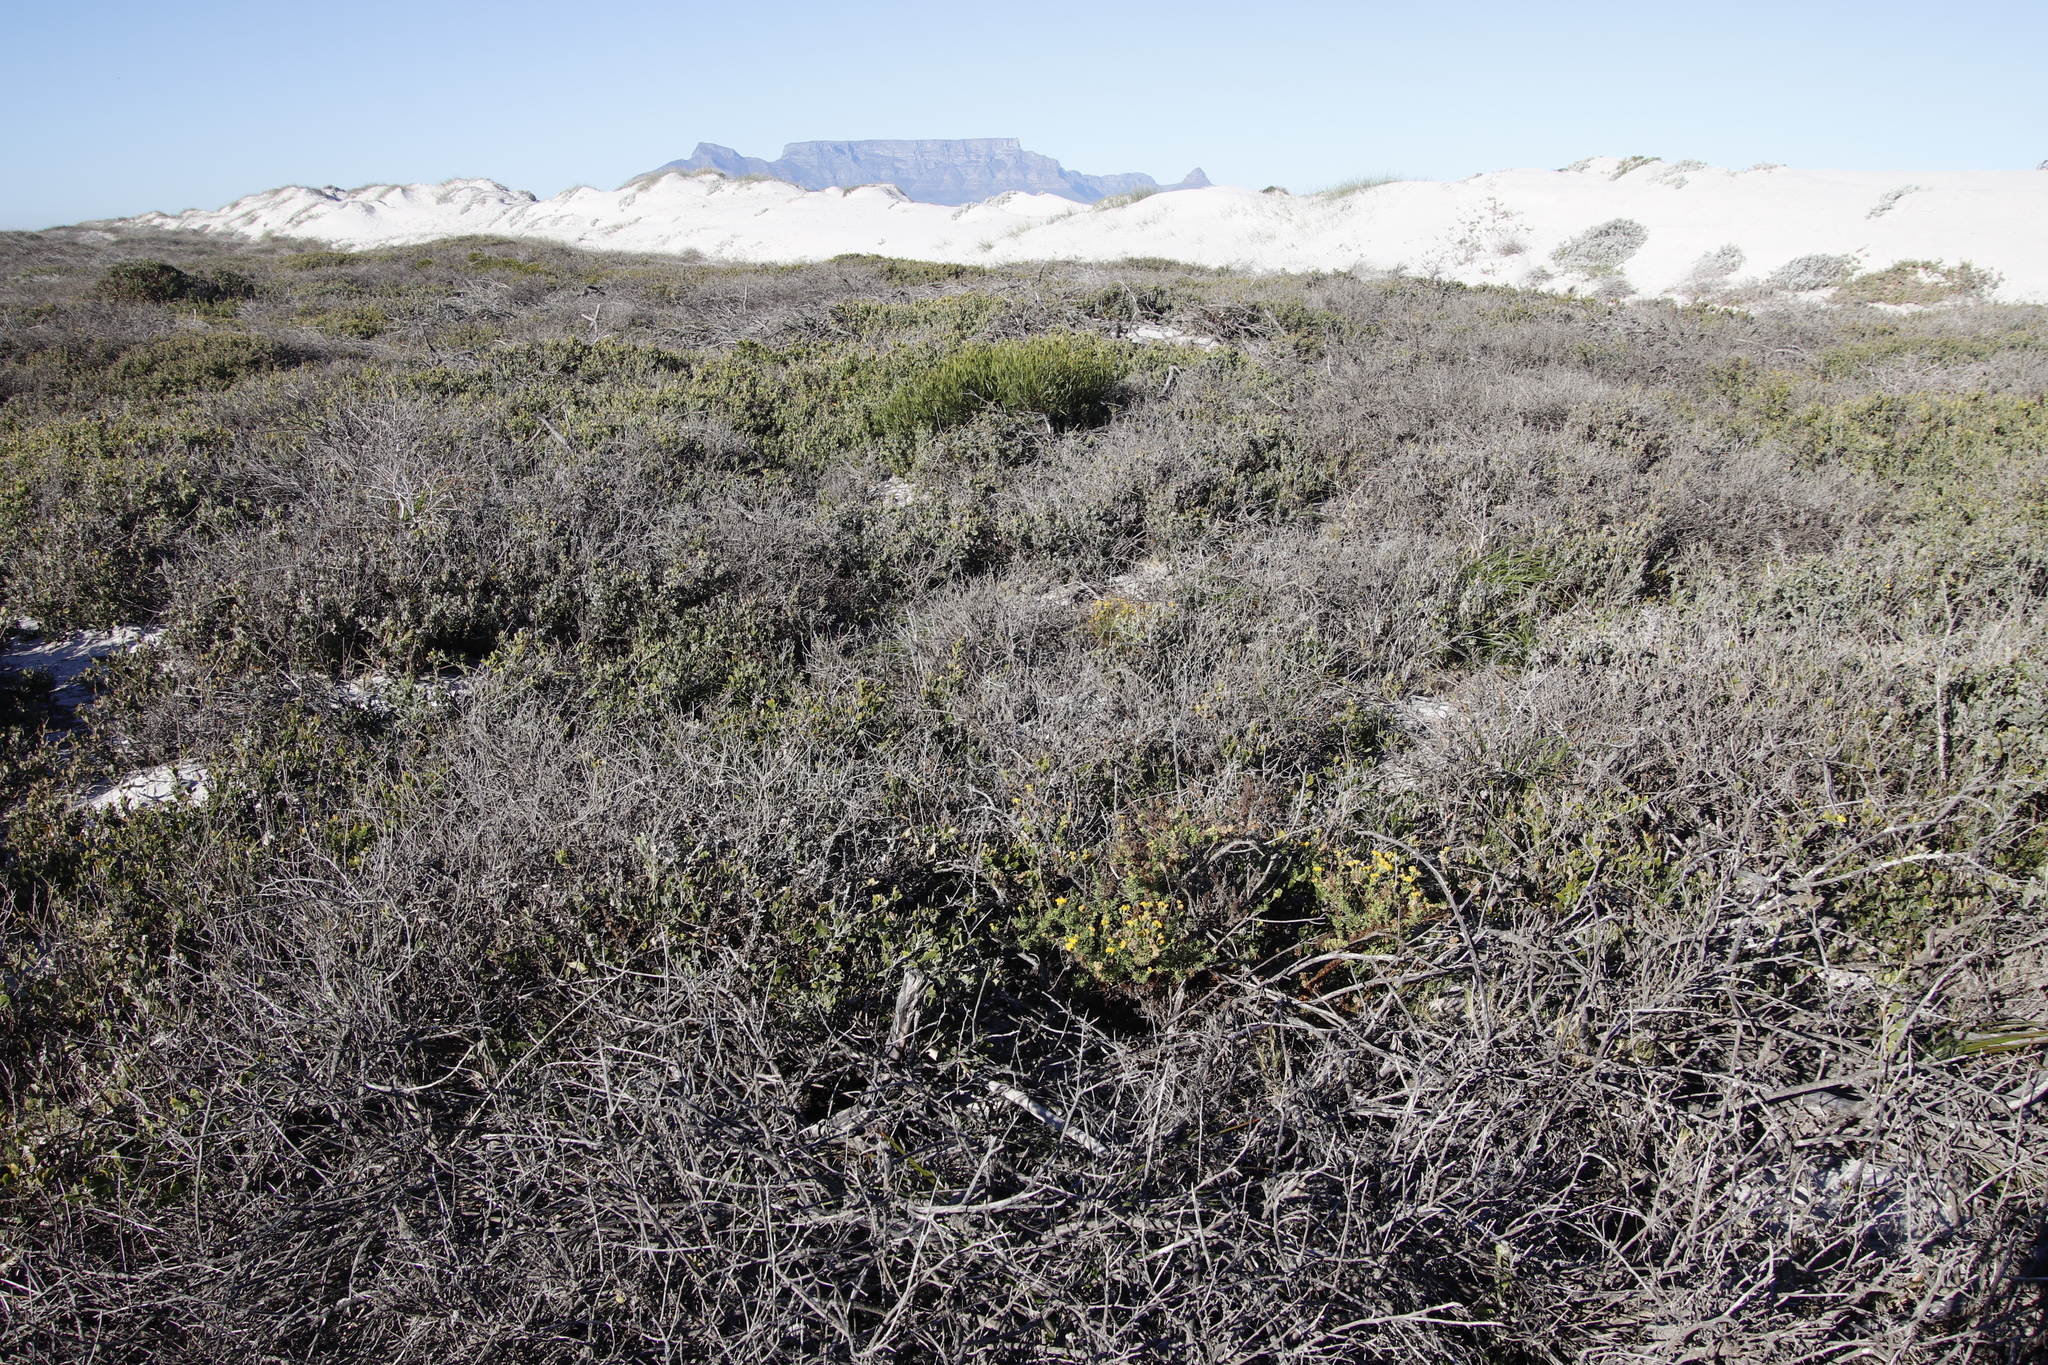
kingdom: Plantae
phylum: Tracheophyta
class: Magnoliopsida
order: Asterales
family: Asteraceae
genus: Nidorella
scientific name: Nidorella foetida
